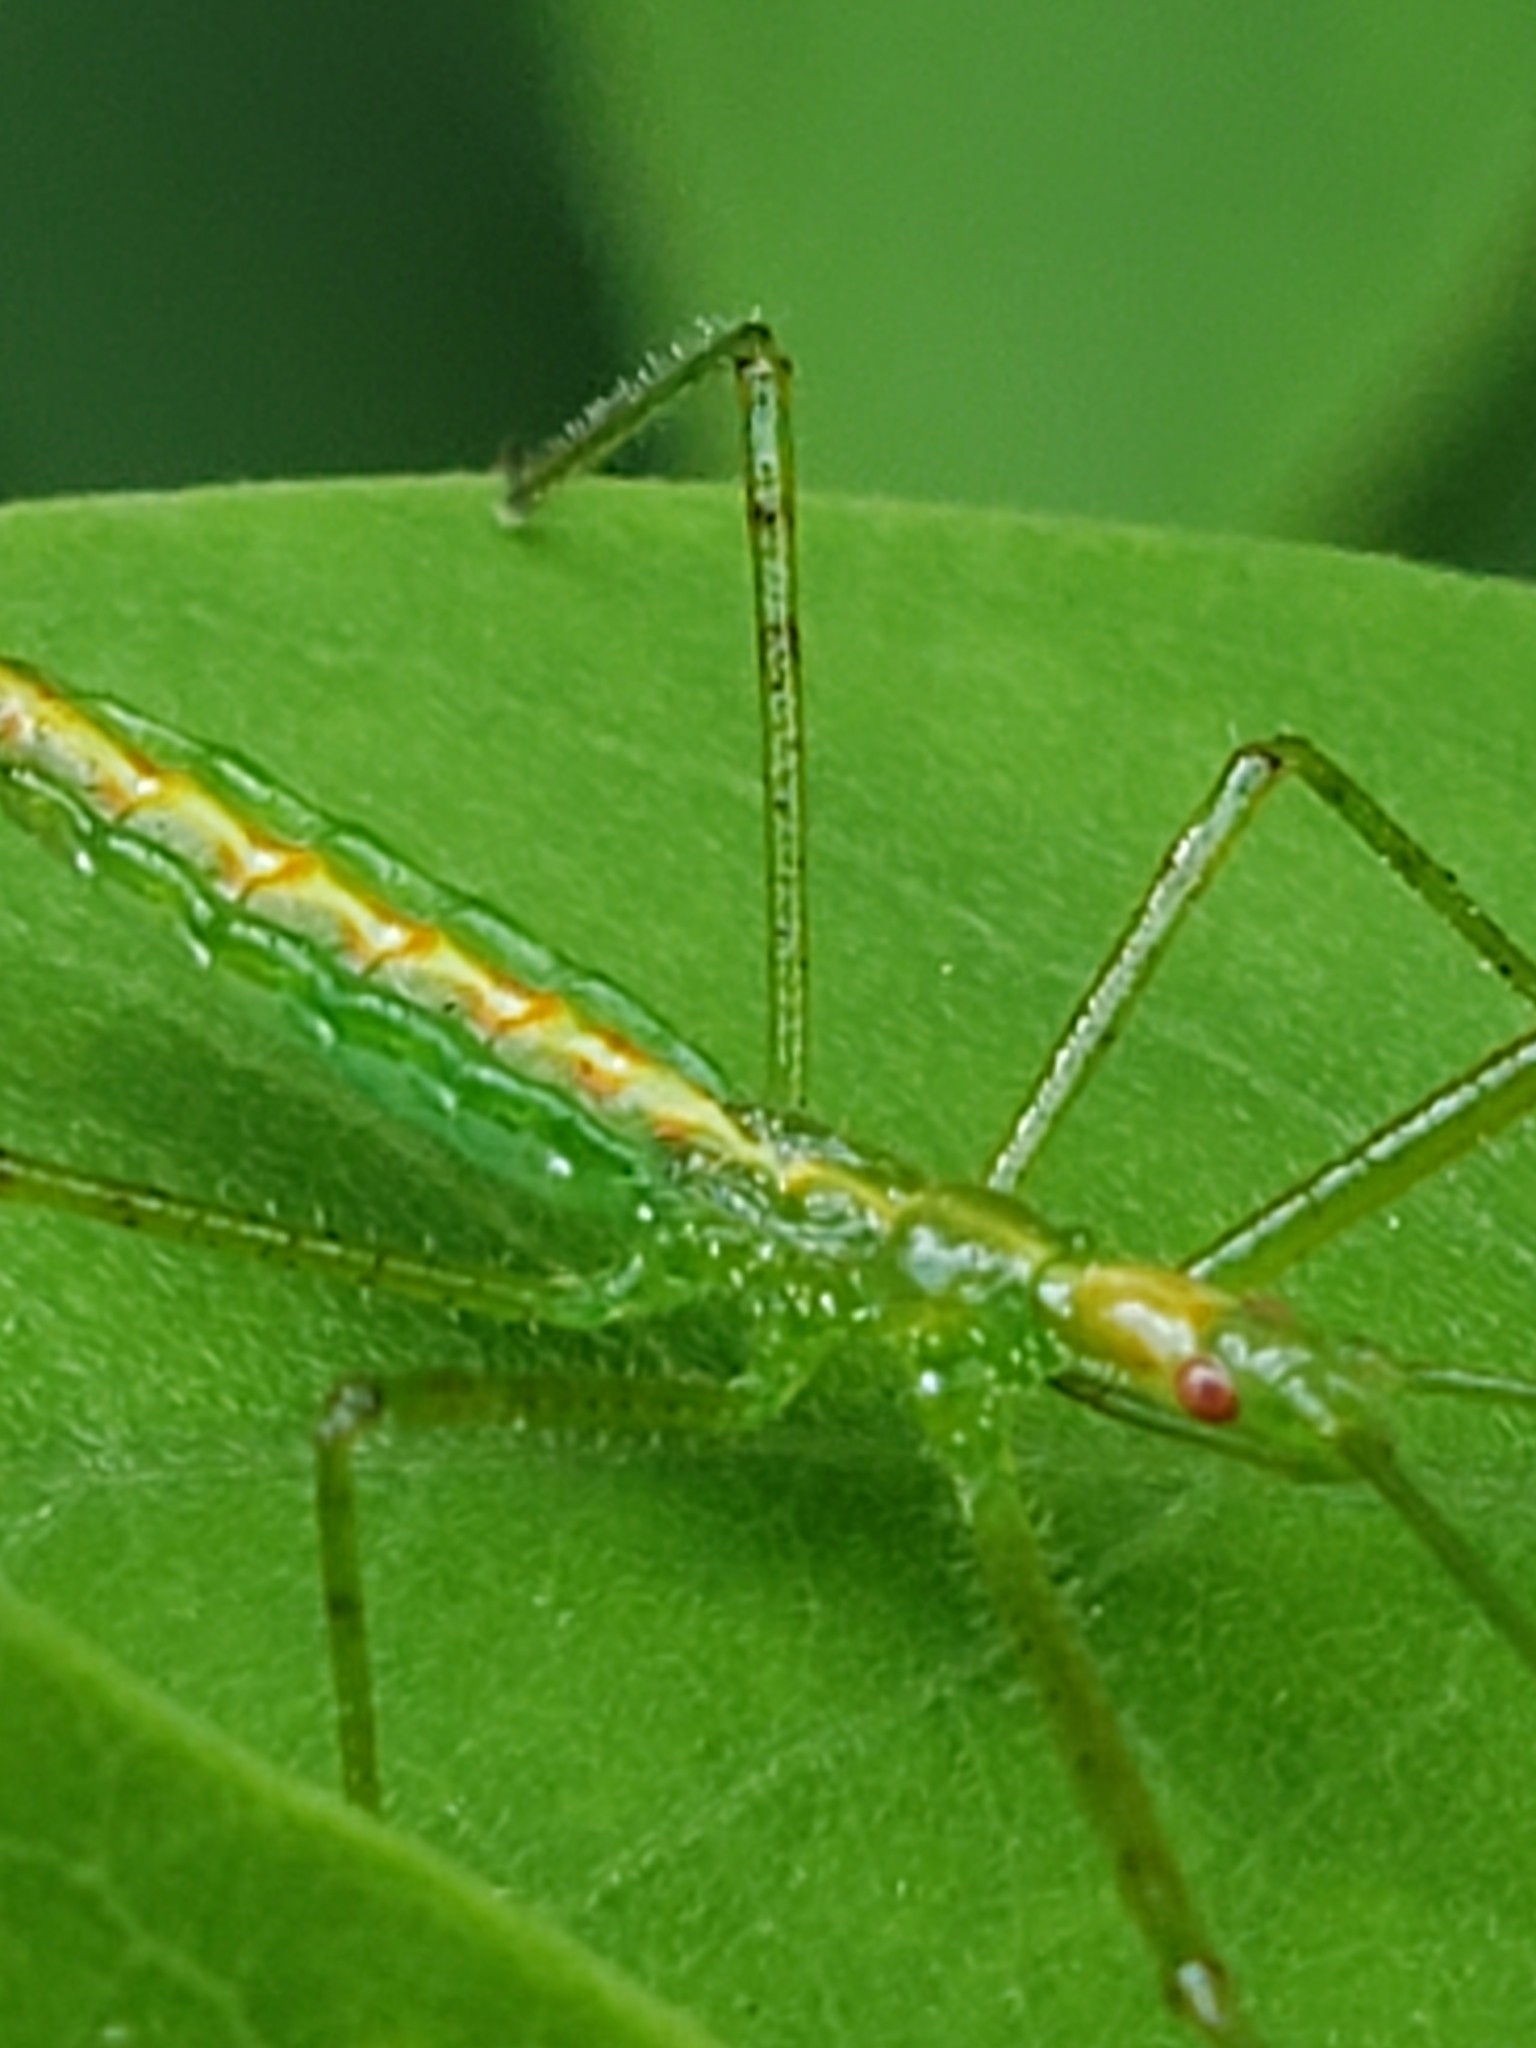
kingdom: Animalia
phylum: Arthropoda
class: Insecta
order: Hemiptera
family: Reduviidae
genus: Zelus
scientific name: Zelus luridus
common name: Pale green assassin bug
